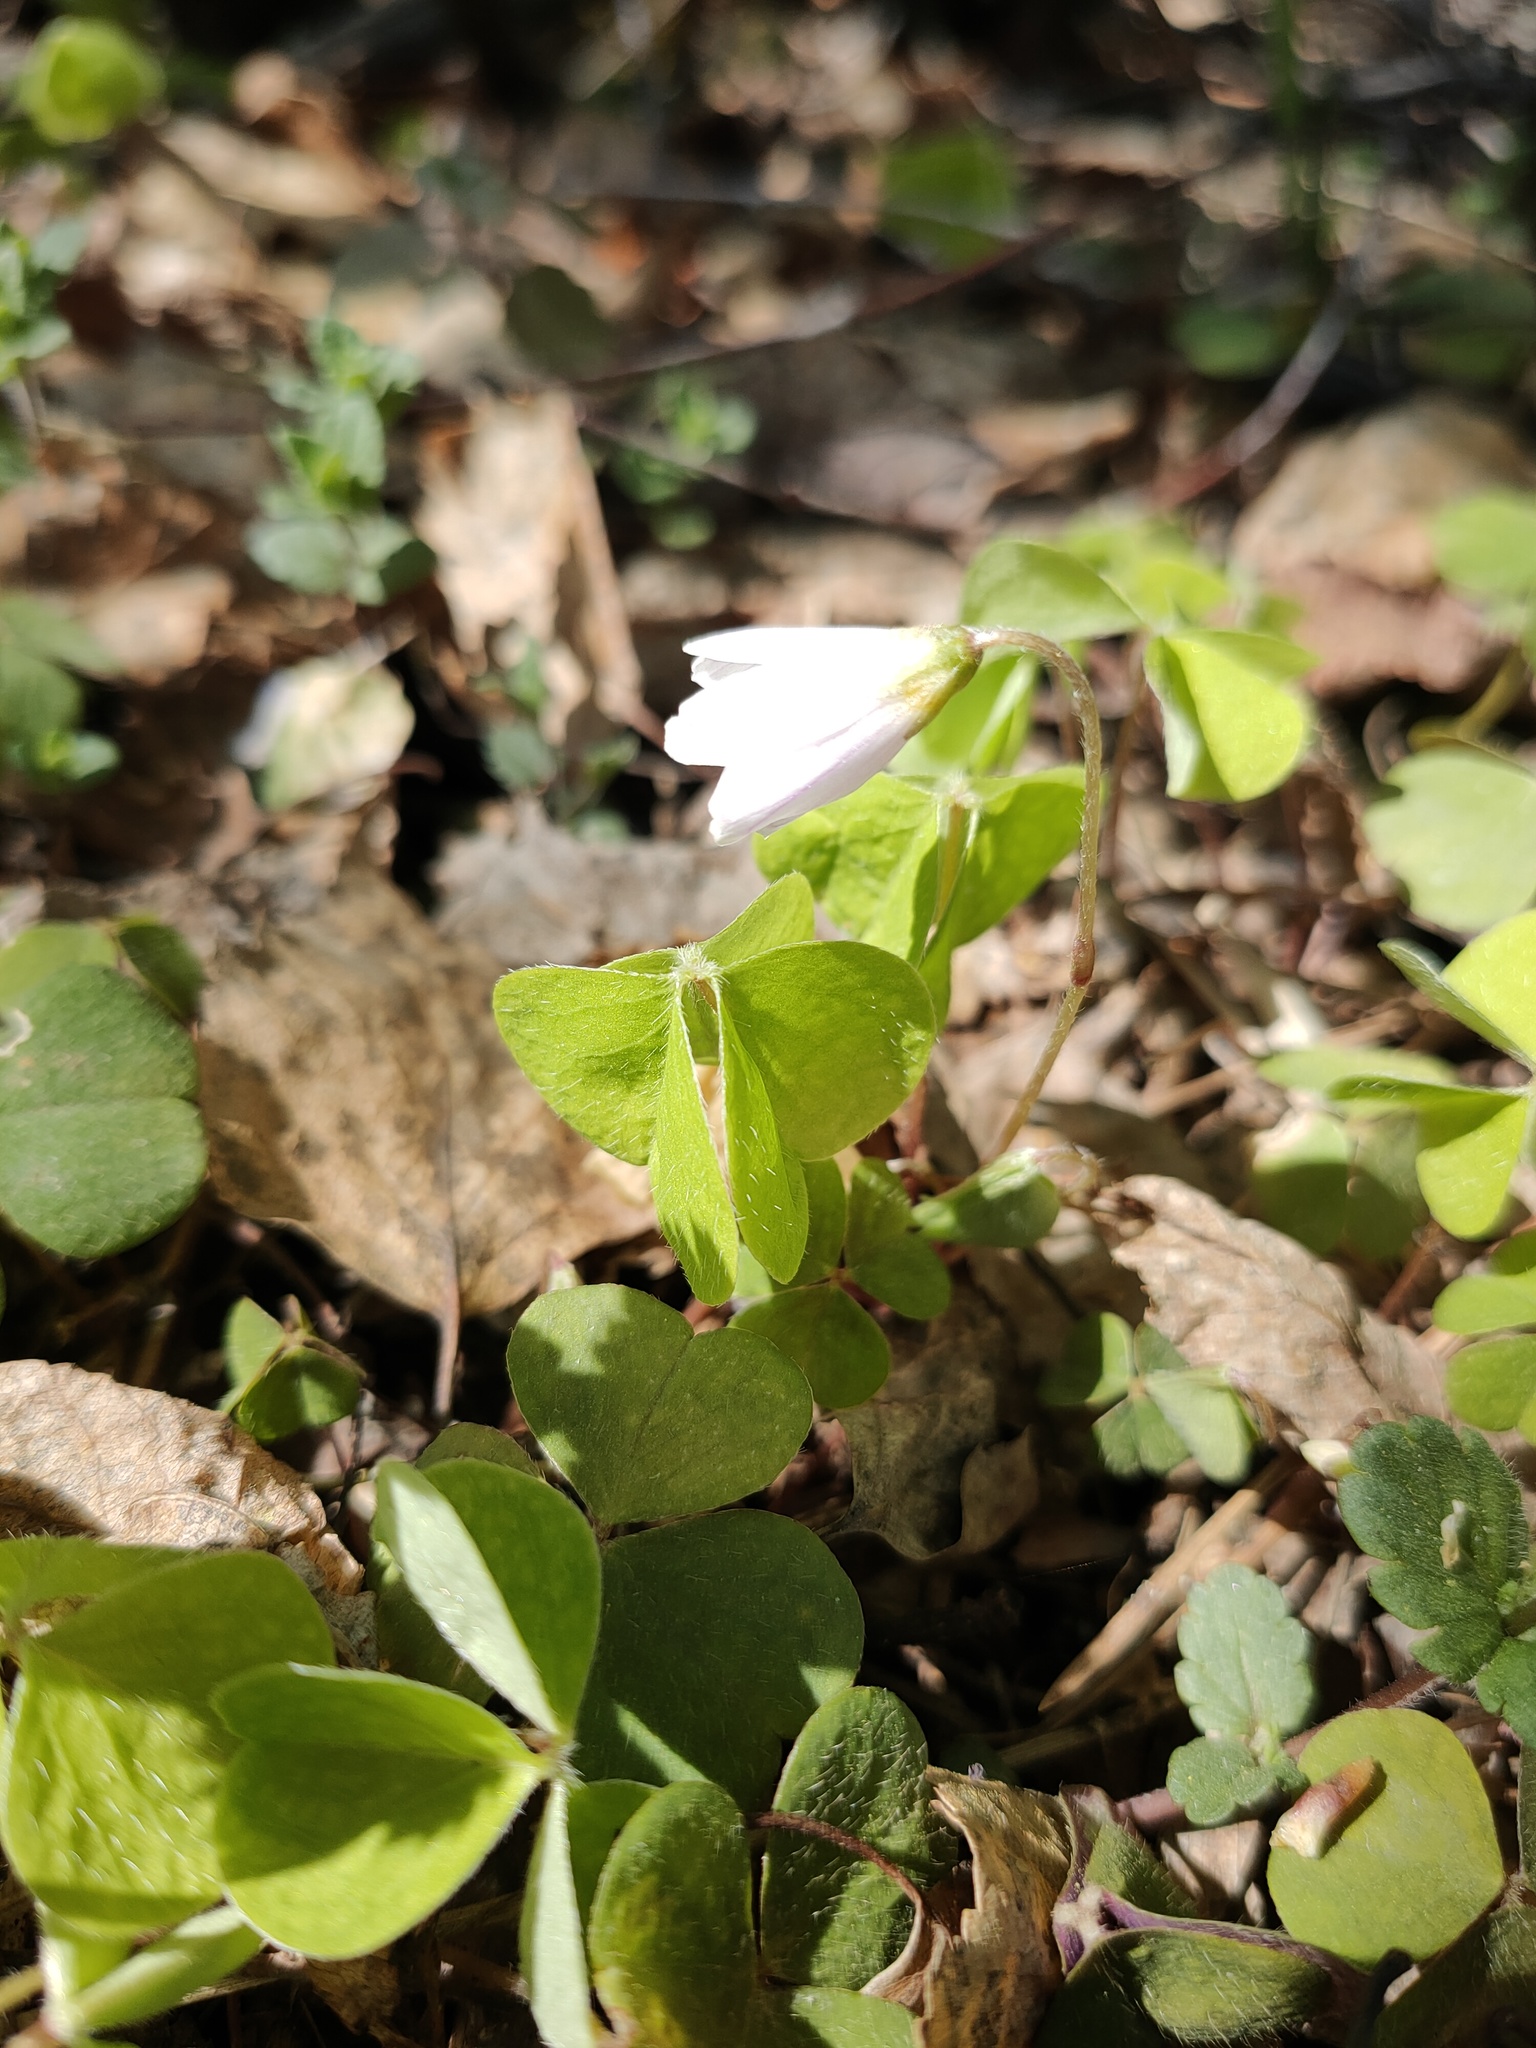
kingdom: Plantae
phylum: Tracheophyta
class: Magnoliopsida
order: Oxalidales
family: Oxalidaceae
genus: Oxalis
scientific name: Oxalis acetosella
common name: Wood-sorrel
